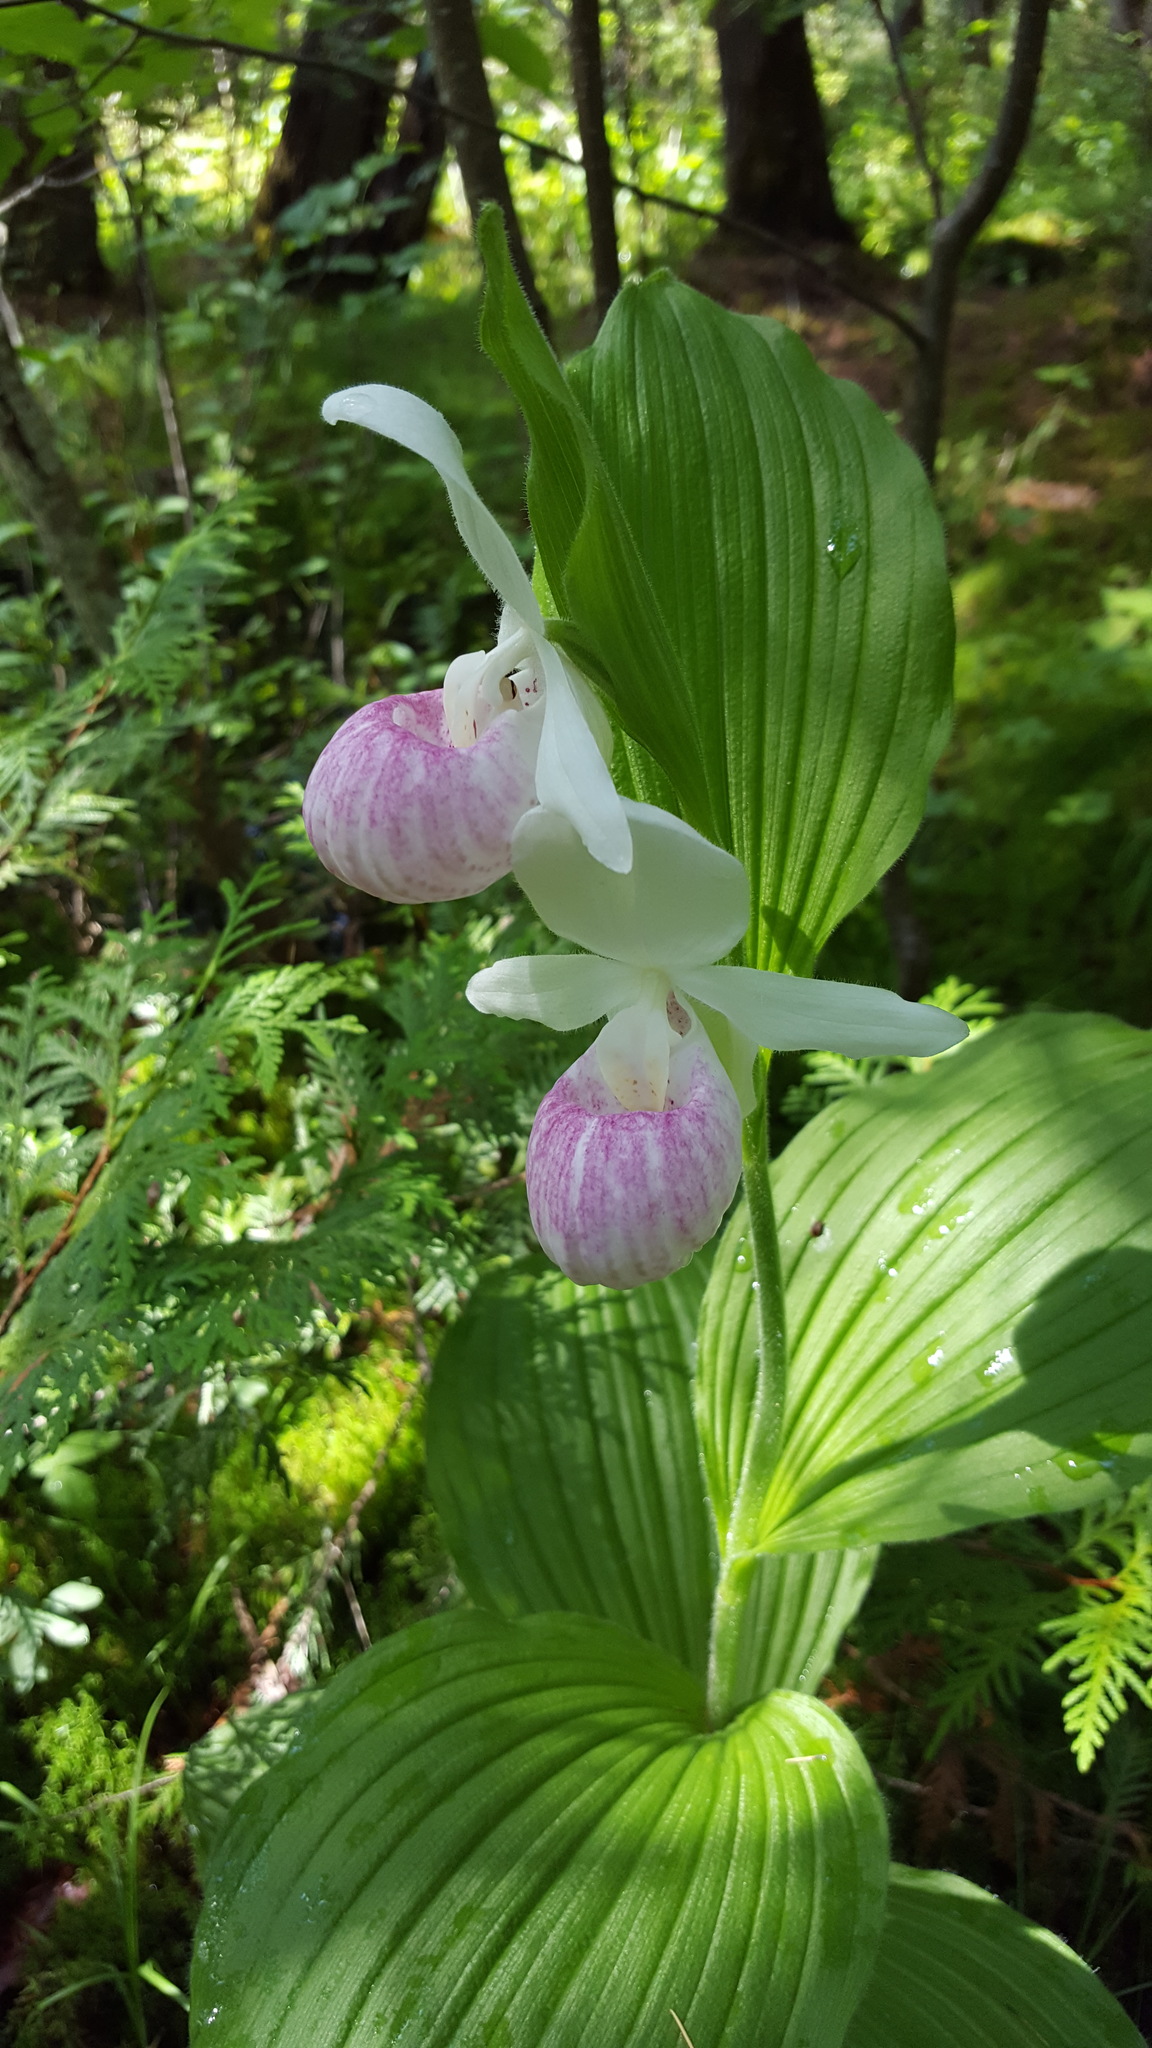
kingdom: Plantae
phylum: Tracheophyta
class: Liliopsida
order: Asparagales
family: Orchidaceae
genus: Cypripedium
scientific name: Cypripedium reginae
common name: Queen lady's-slipper
